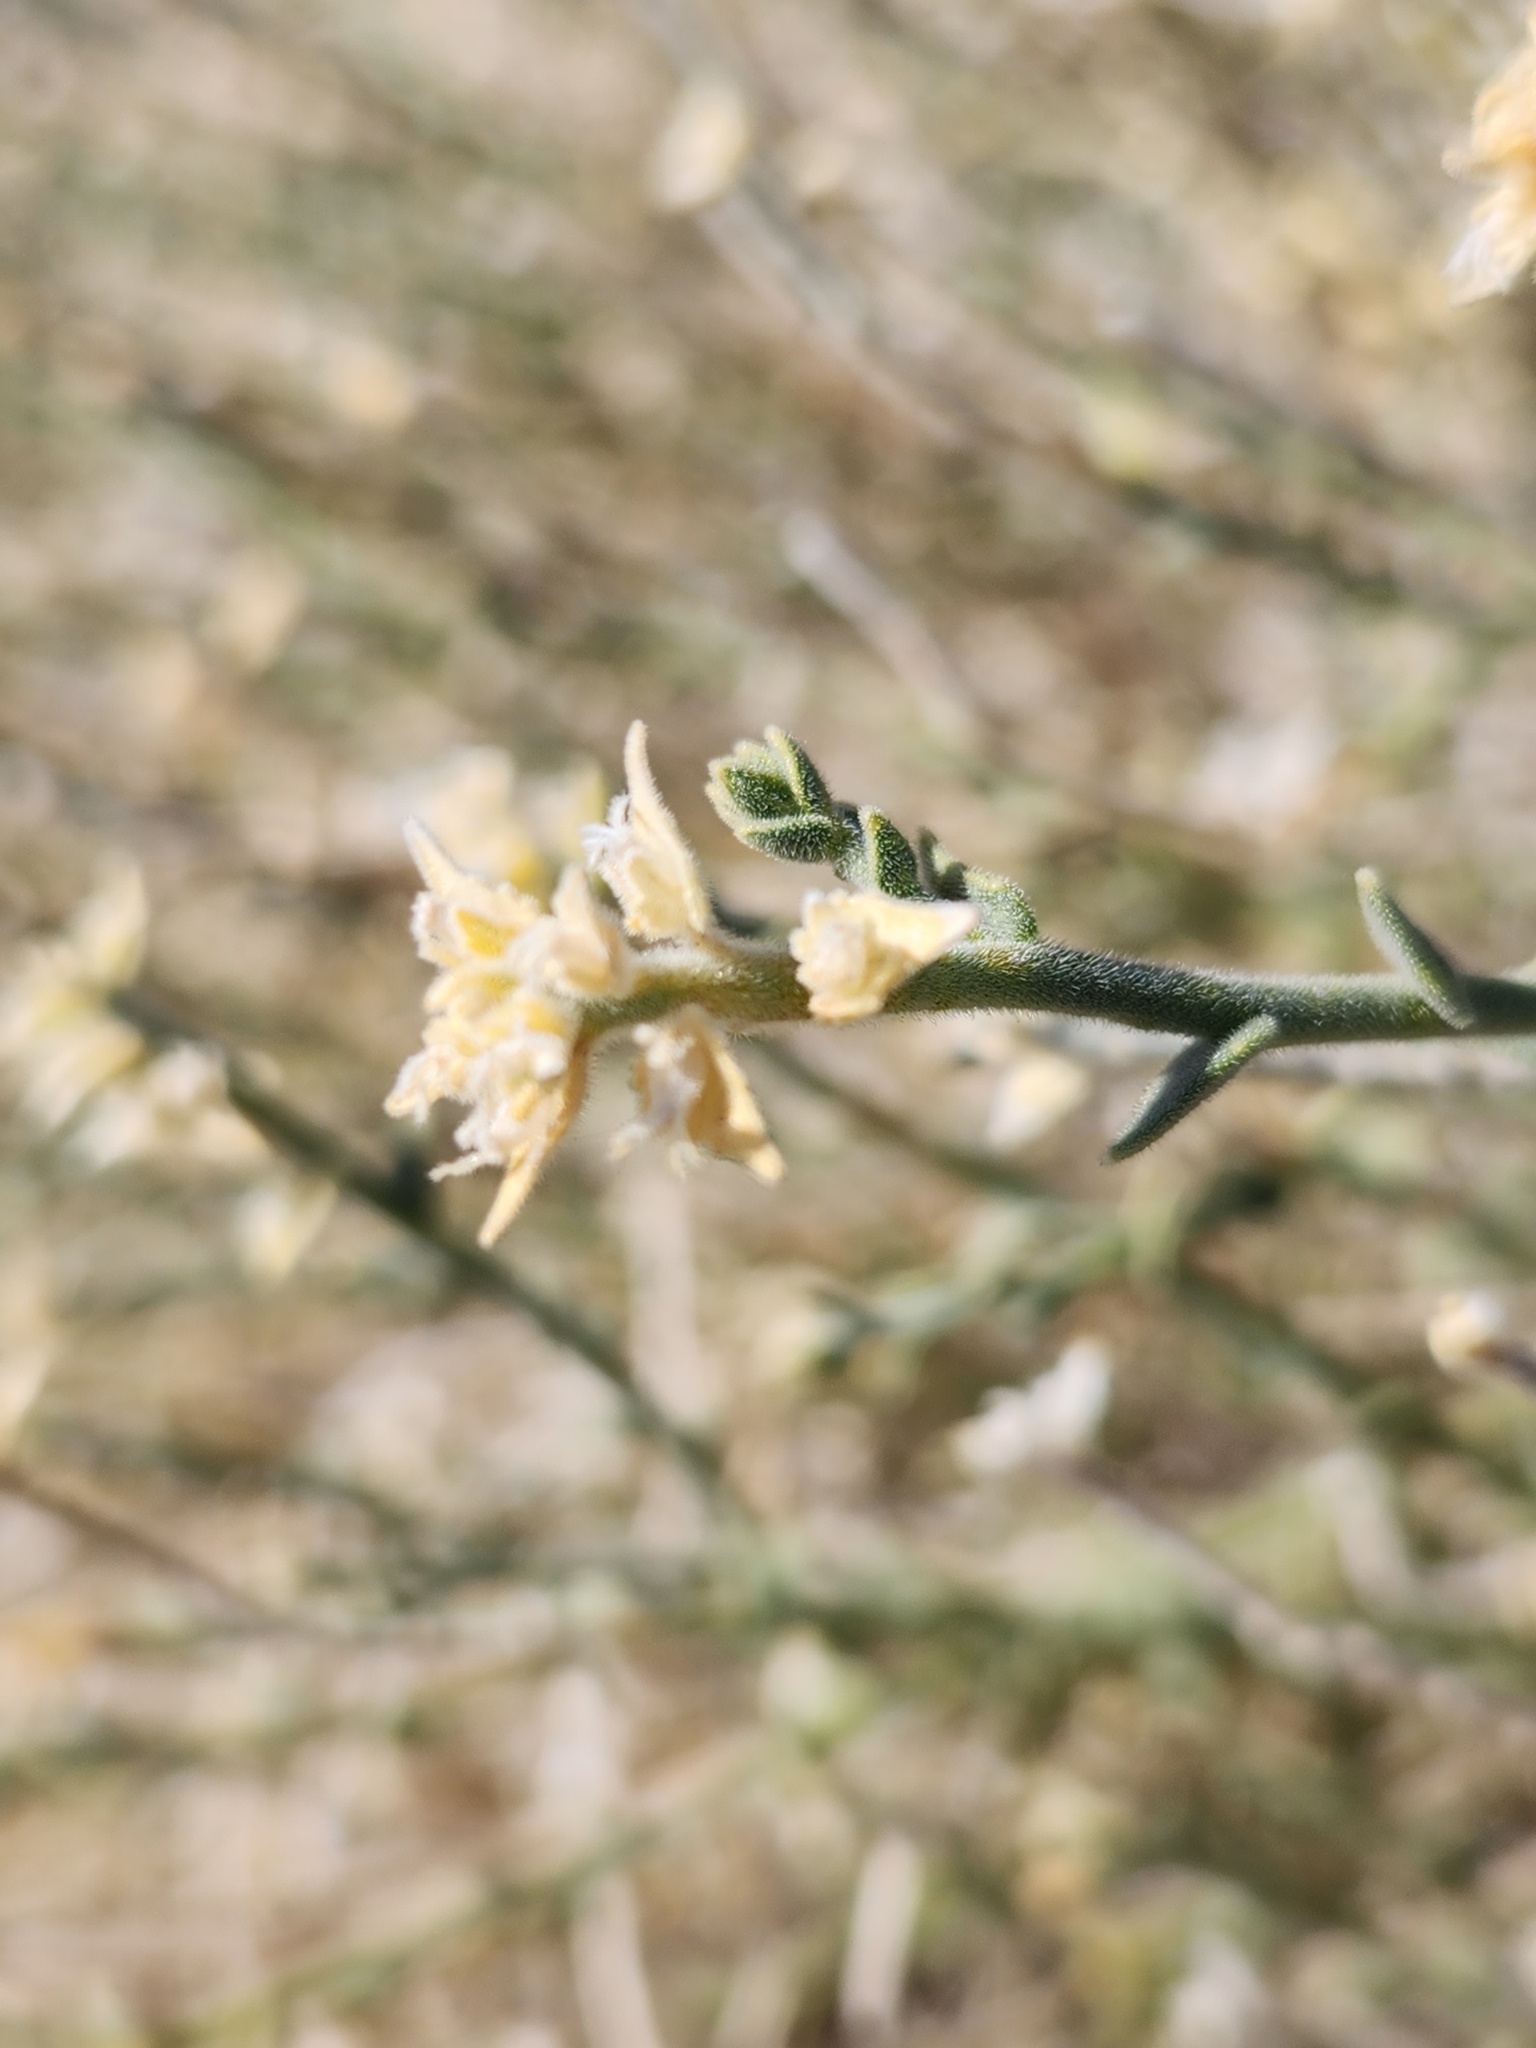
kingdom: Plantae
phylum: Tracheophyta
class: Magnoliopsida
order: Cornales
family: Loasaceae
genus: Petalonyx
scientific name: Petalonyx thurberi
